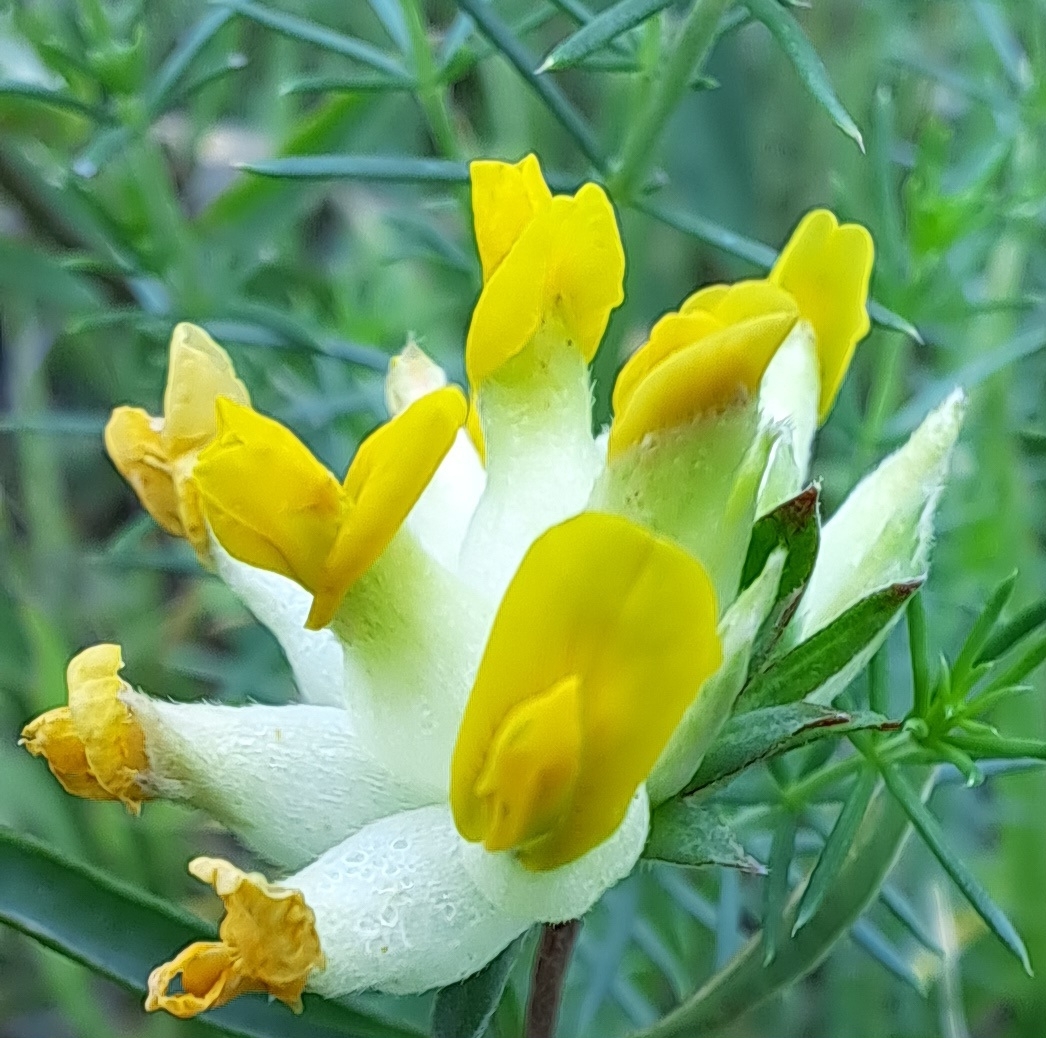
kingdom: Plantae
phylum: Tracheophyta
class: Magnoliopsida
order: Fabales
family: Fabaceae
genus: Anthyllis
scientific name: Anthyllis vulneraria
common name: Kidney vetch
